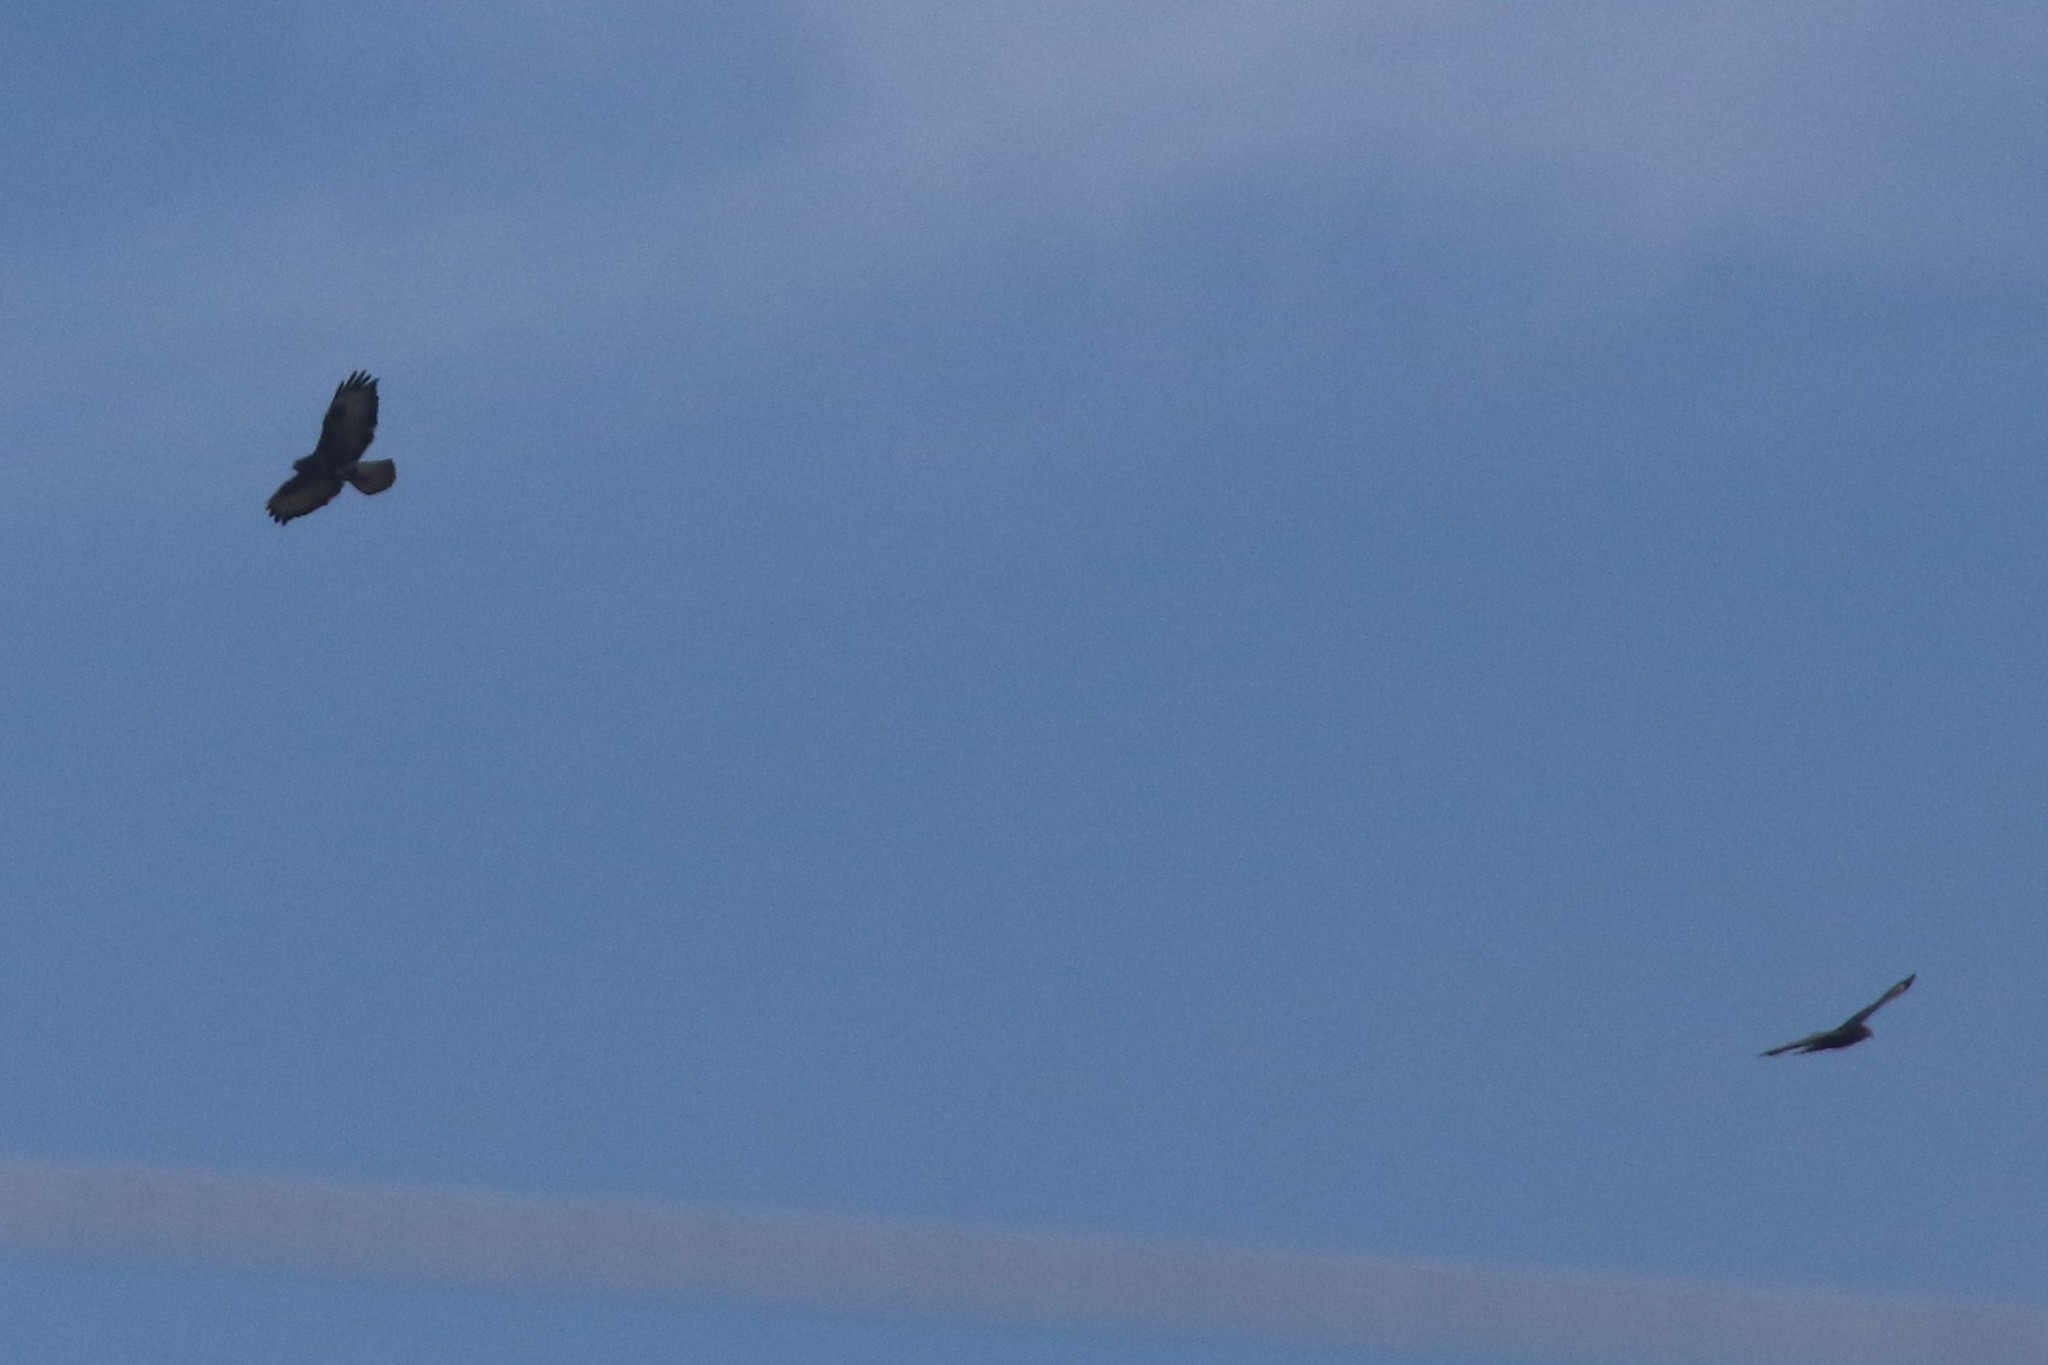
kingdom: Animalia
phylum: Chordata
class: Aves
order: Accipitriformes
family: Accipitridae
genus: Buteo
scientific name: Buteo buteo
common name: Common buzzard
